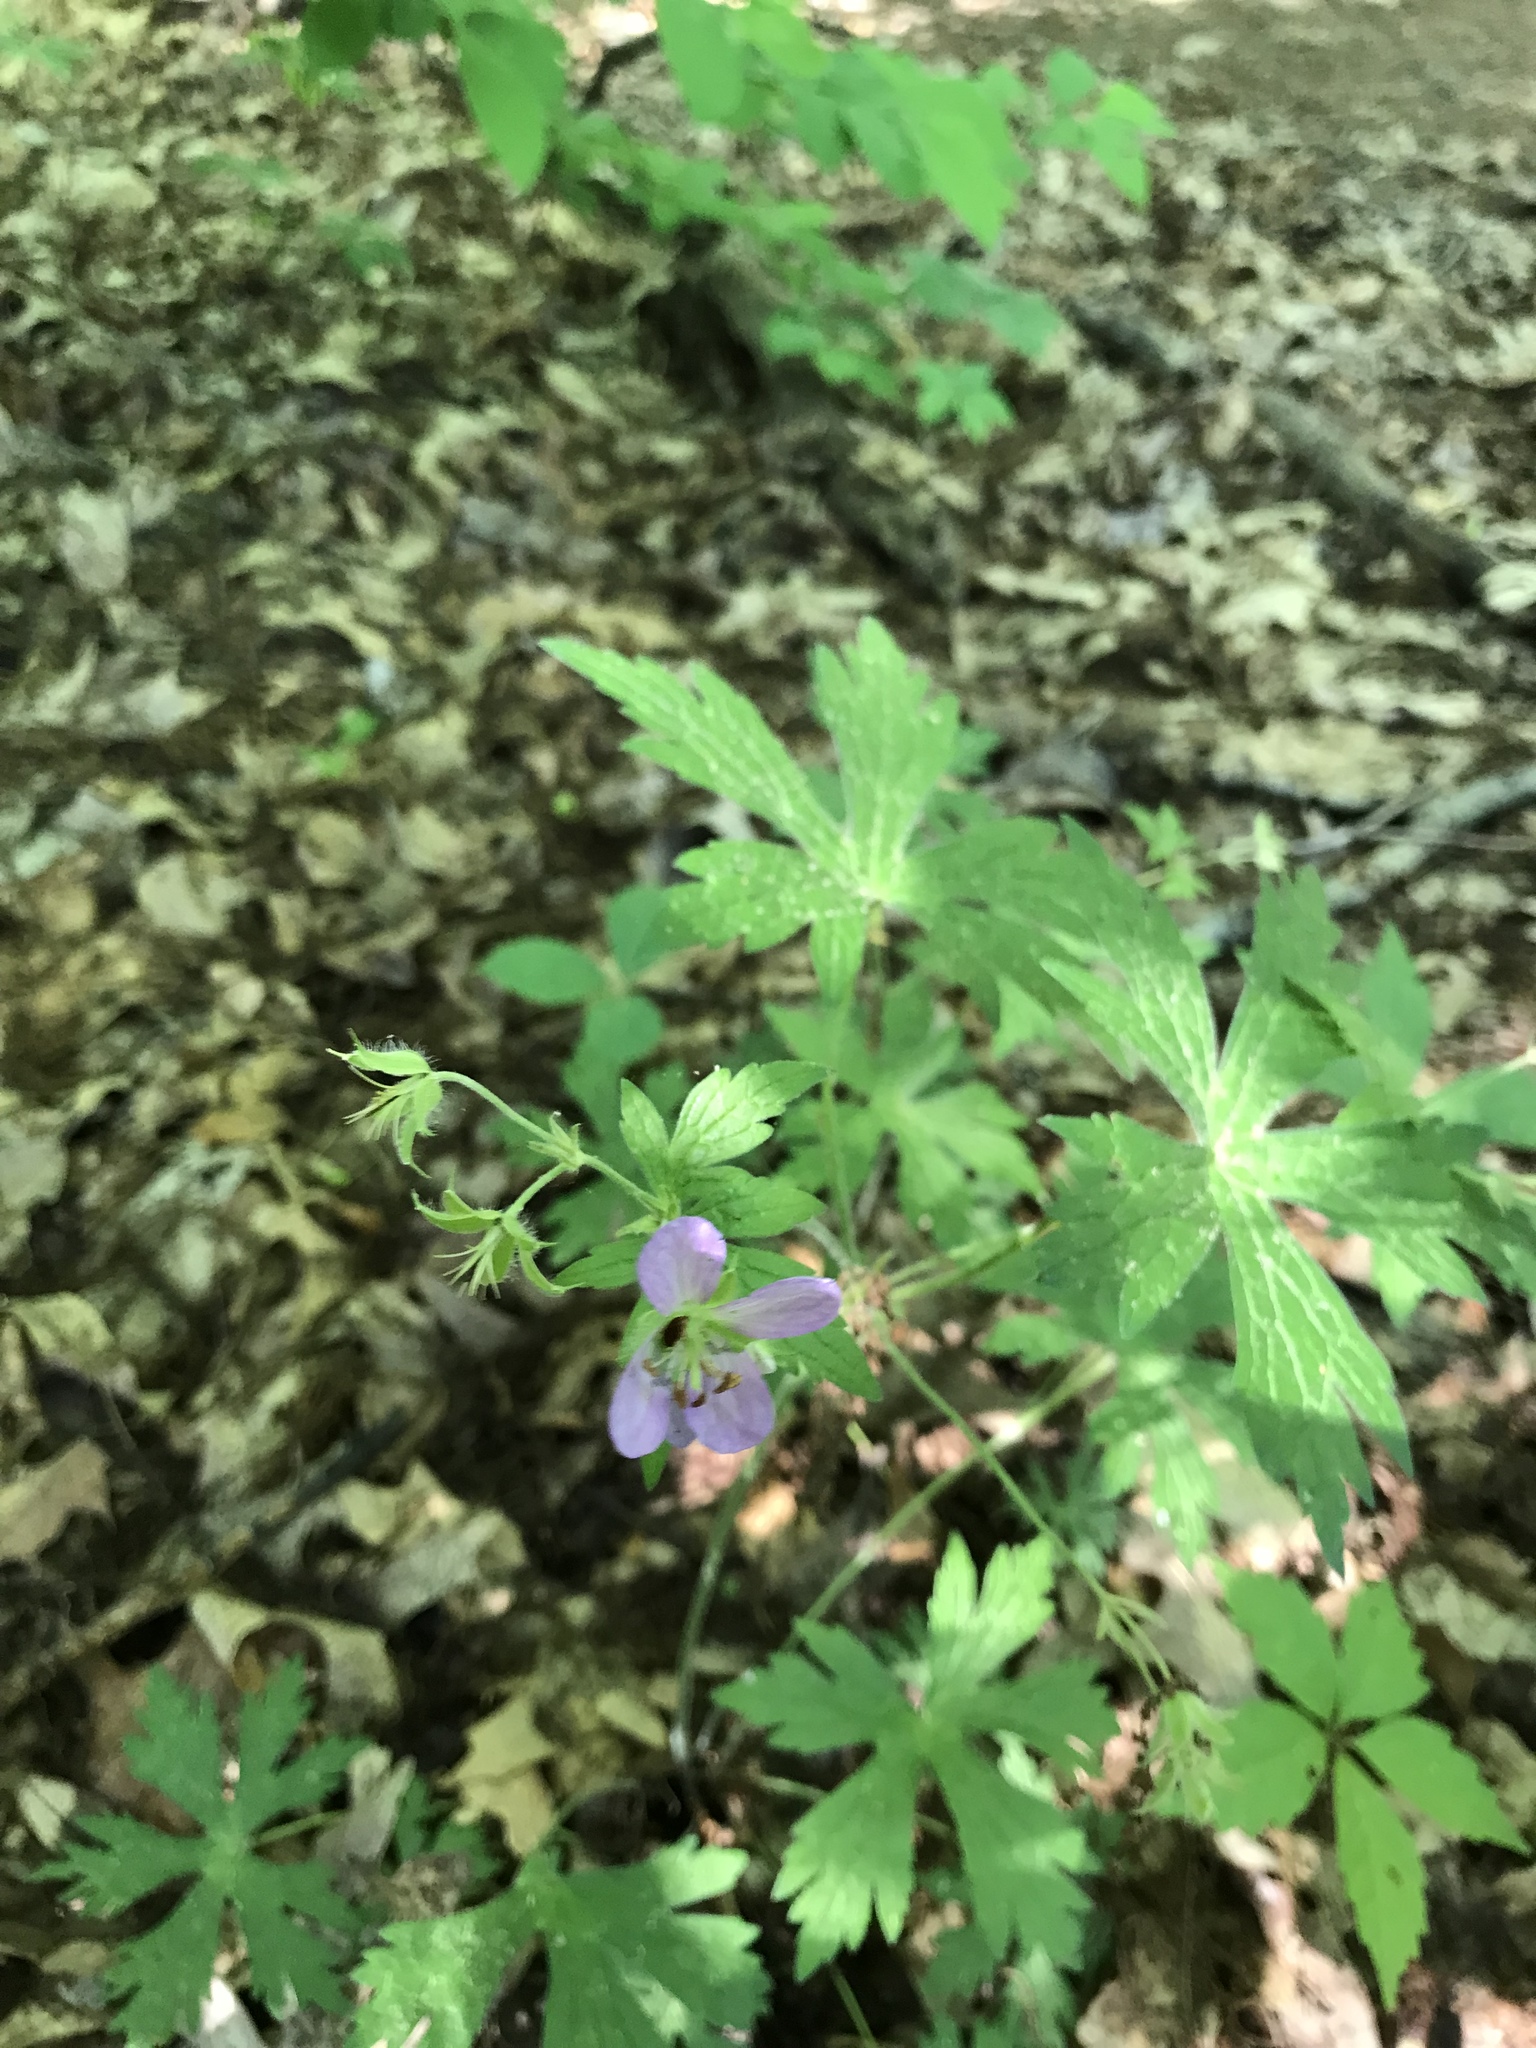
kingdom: Plantae
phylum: Tracheophyta
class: Magnoliopsida
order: Geraniales
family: Geraniaceae
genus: Geranium
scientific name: Geranium maculatum
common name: Spotted geranium
